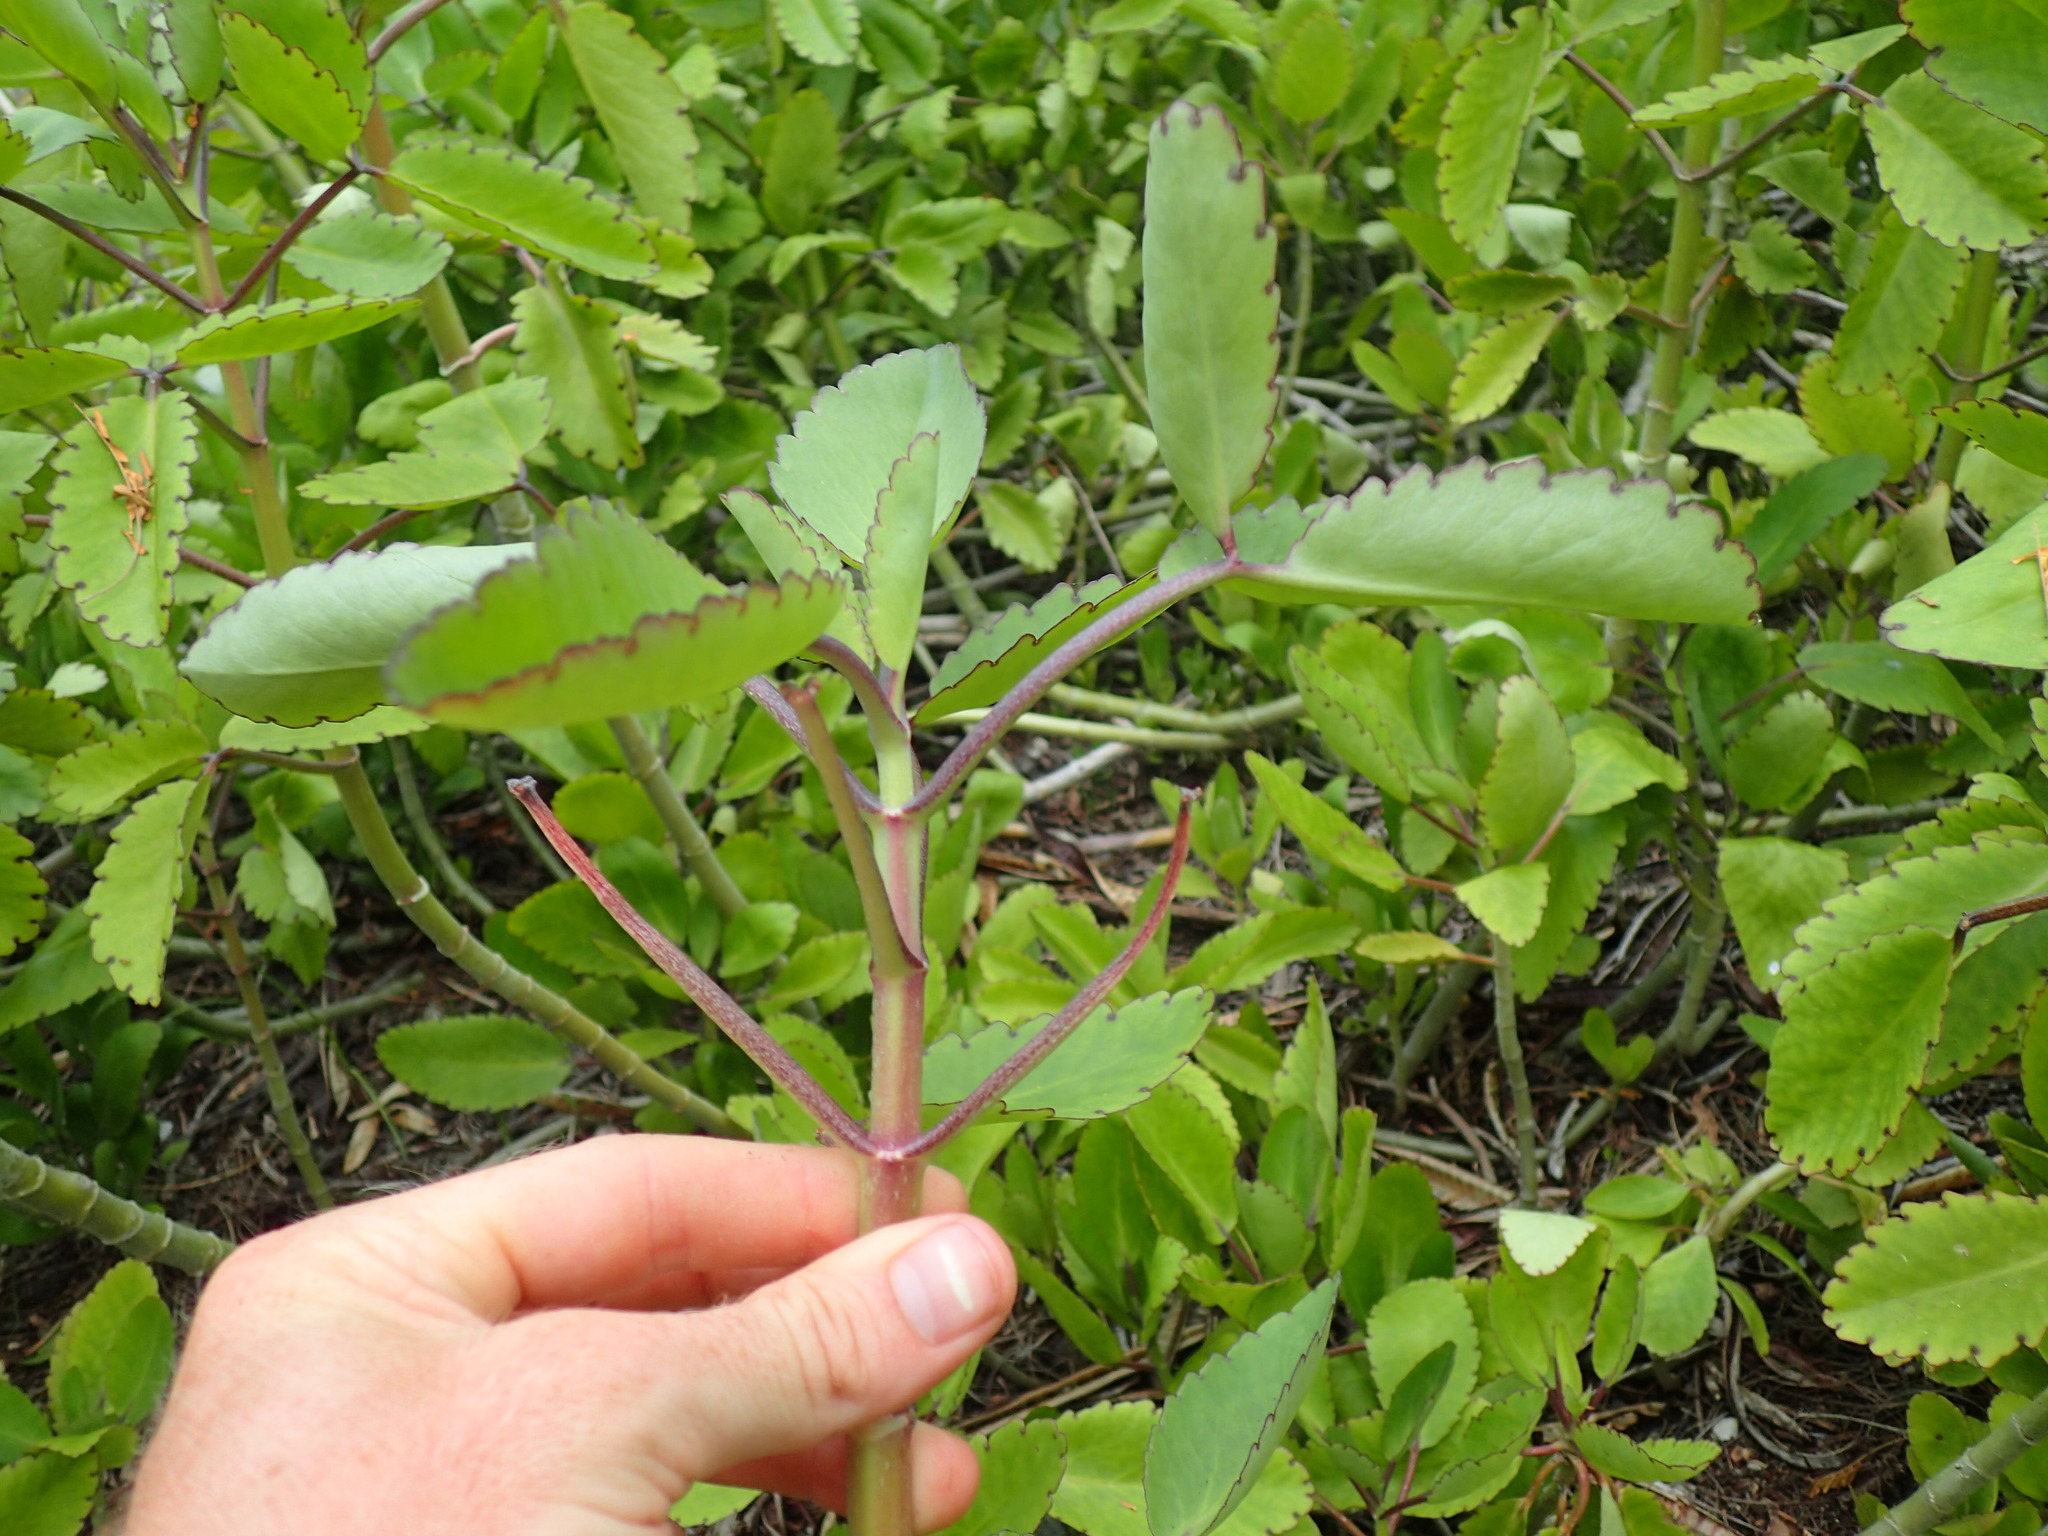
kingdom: Plantae
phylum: Tracheophyta
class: Magnoliopsida
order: Saxifragales
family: Crassulaceae
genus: Kalanchoe
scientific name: Kalanchoe pinnata
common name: Cathedral bells
